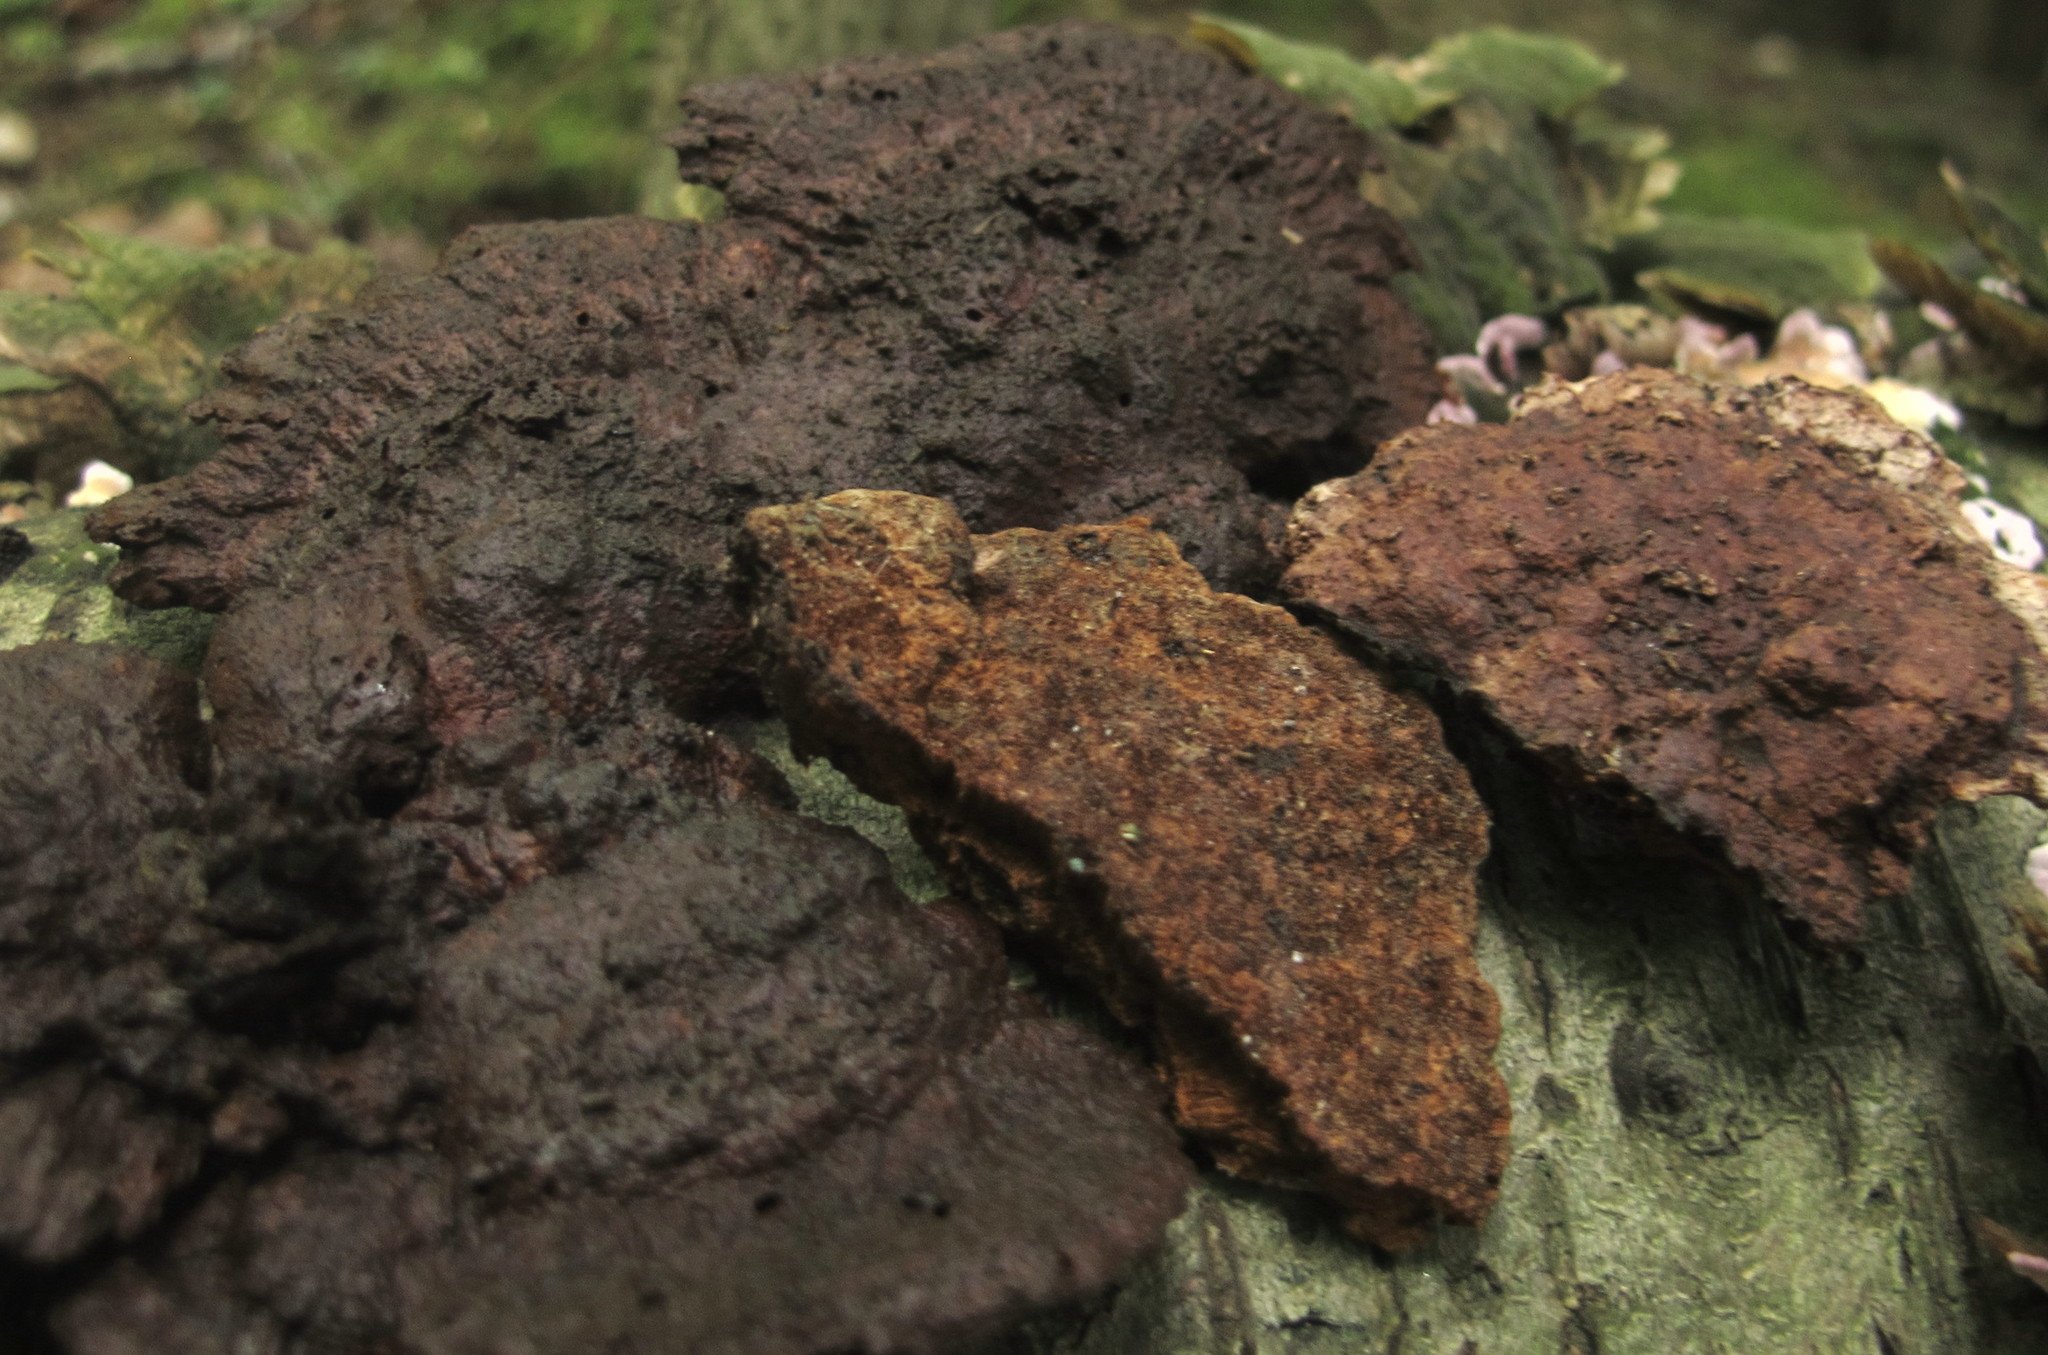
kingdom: Fungi
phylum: Basidiomycota
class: Agaricomycetes
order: Hymenochaetales
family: Hymenochaetaceae
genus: Phellinus
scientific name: Phellinus gilvus
